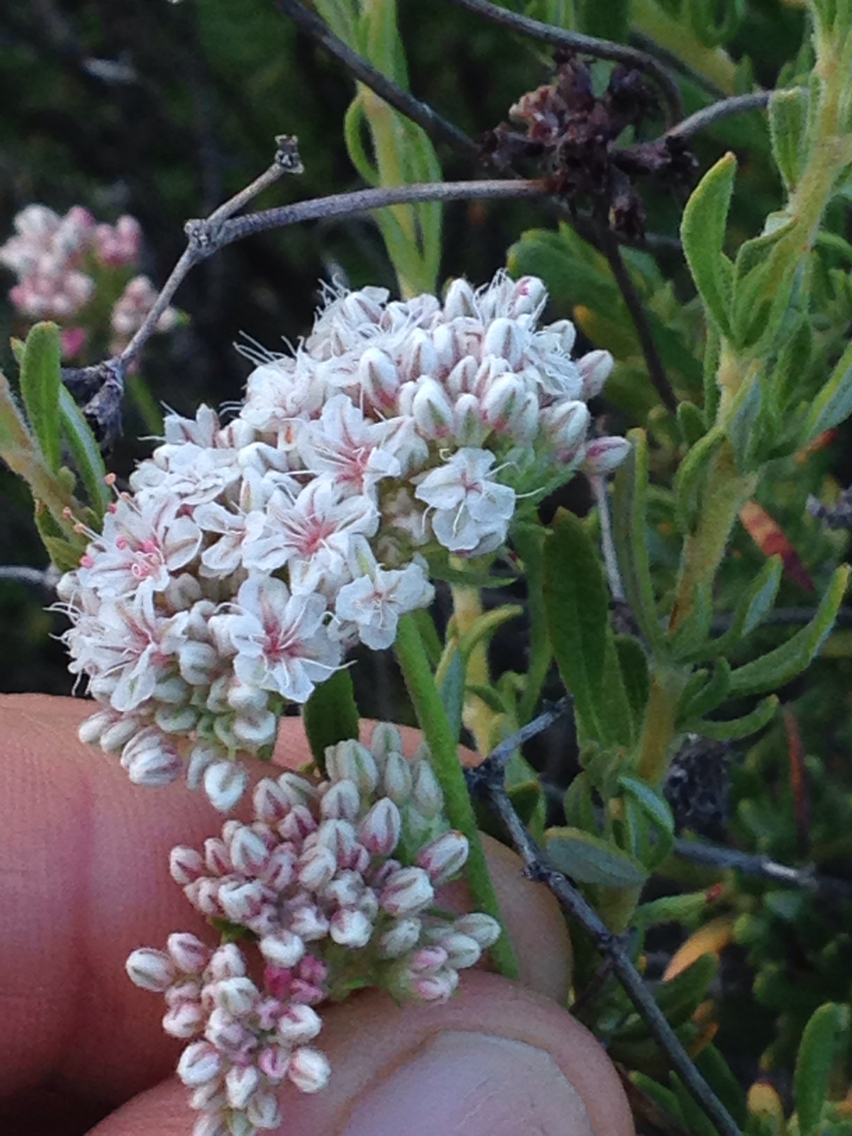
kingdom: Plantae
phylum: Tracheophyta
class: Magnoliopsida
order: Caryophyllales
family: Polygonaceae
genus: Eriogonum
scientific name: Eriogonum fasciculatum
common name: California wild buckwheat
